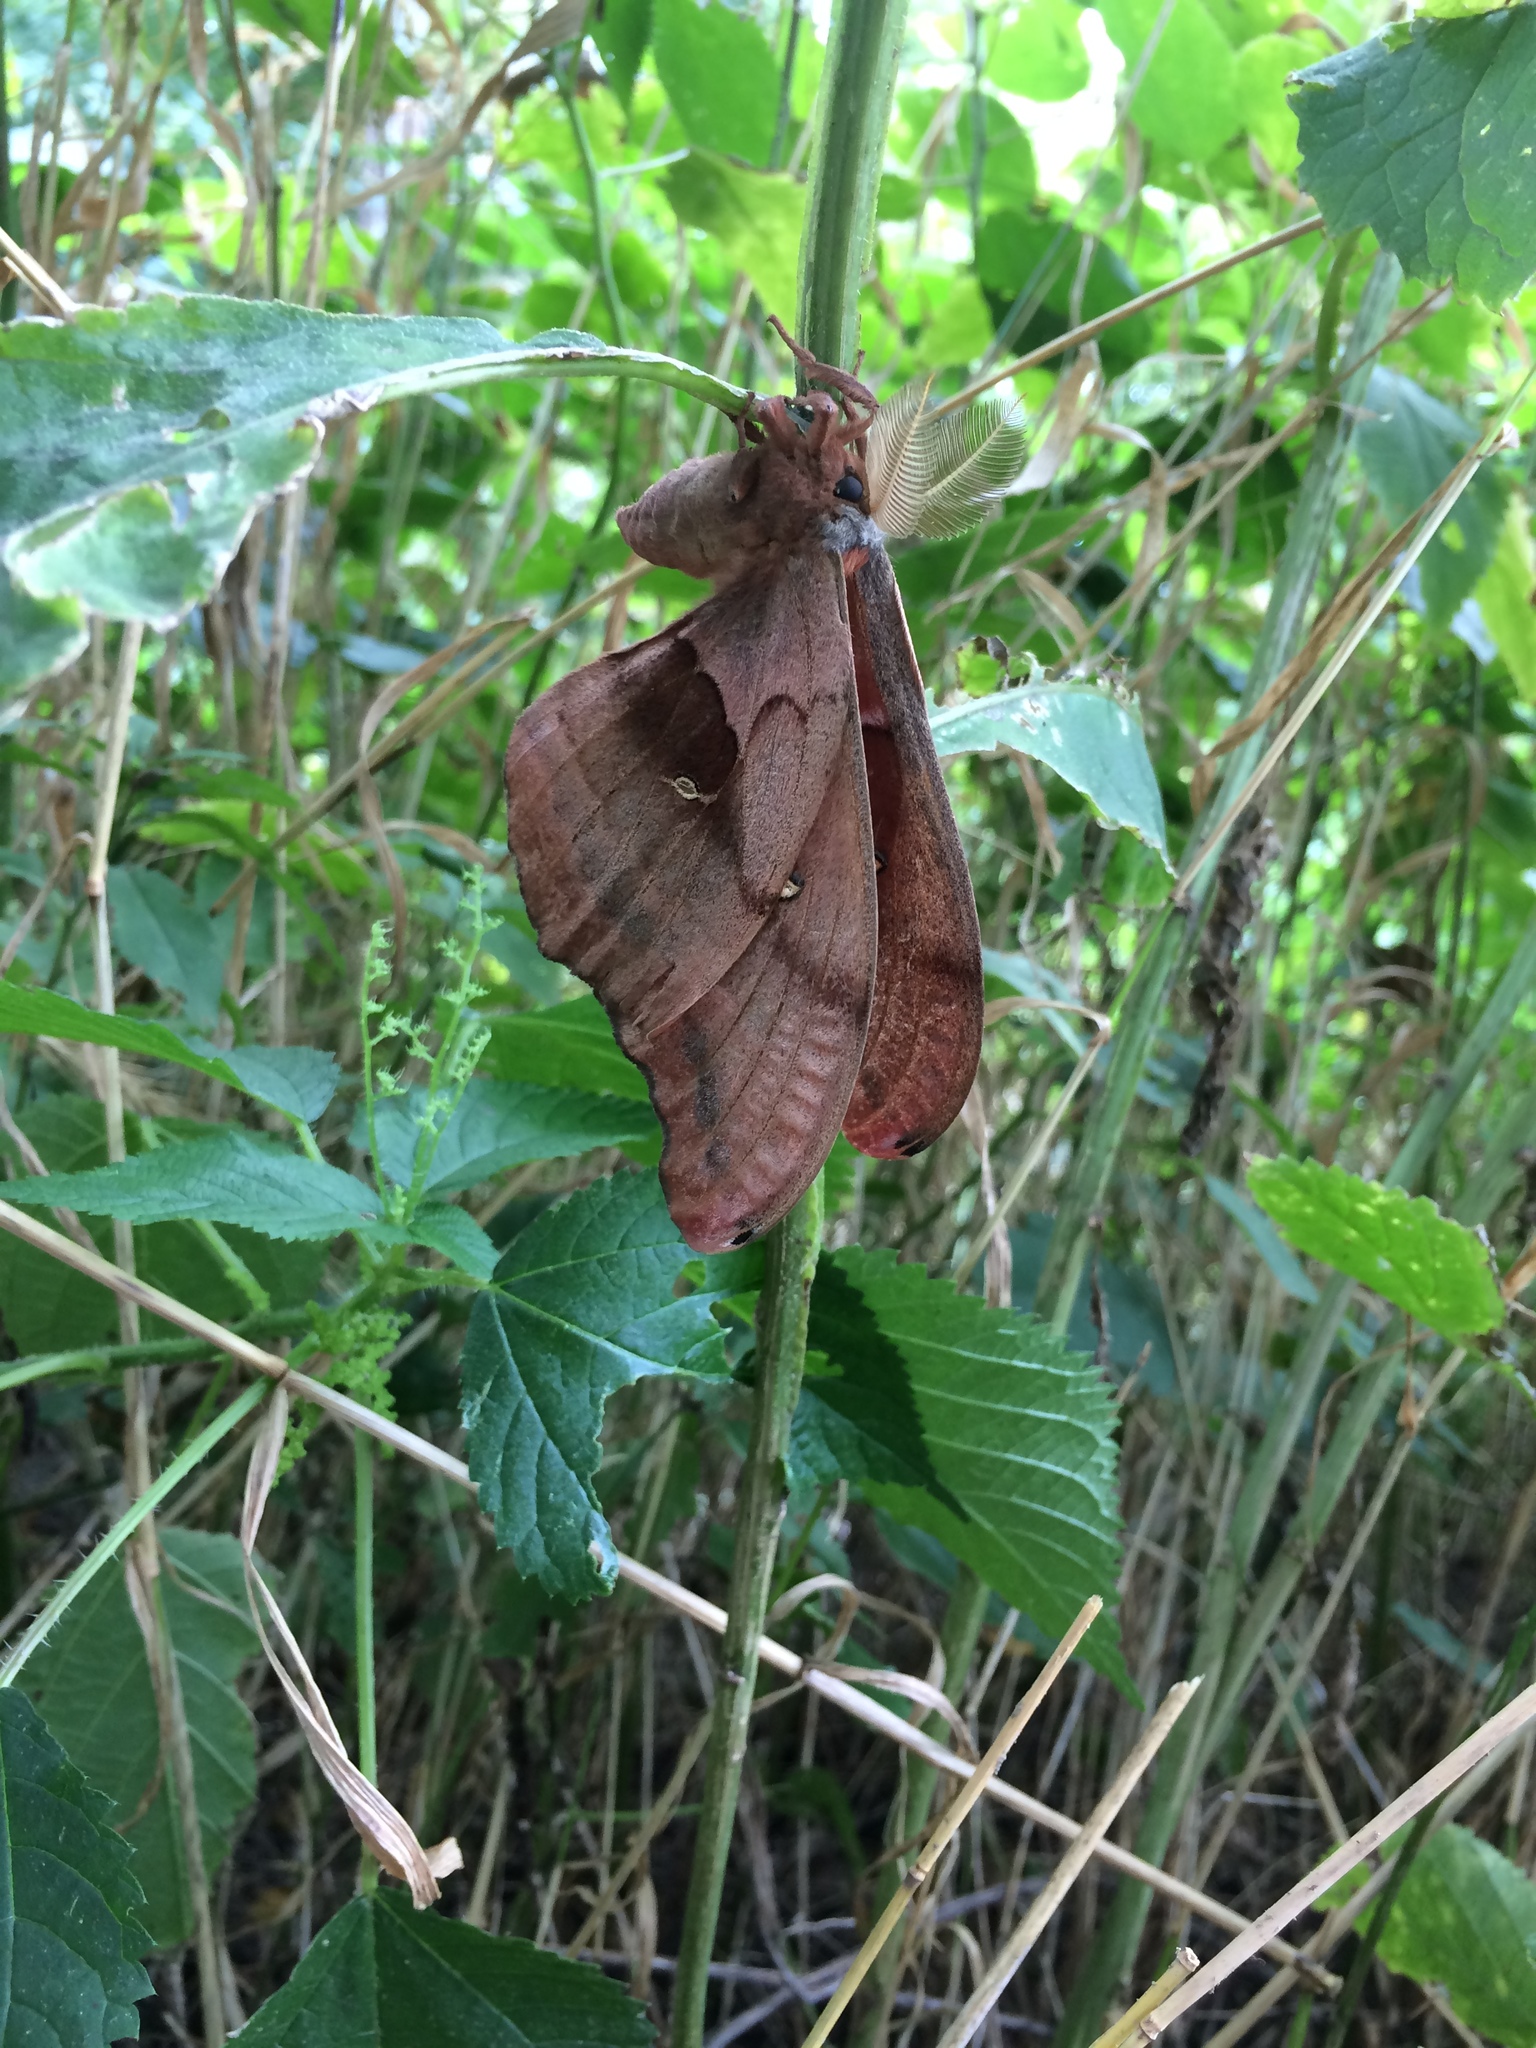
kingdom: Animalia
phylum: Arthropoda
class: Insecta
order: Lepidoptera
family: Saturniidae
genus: Antheraea
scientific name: Antheraea polyphemus
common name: Polyphemus moth
